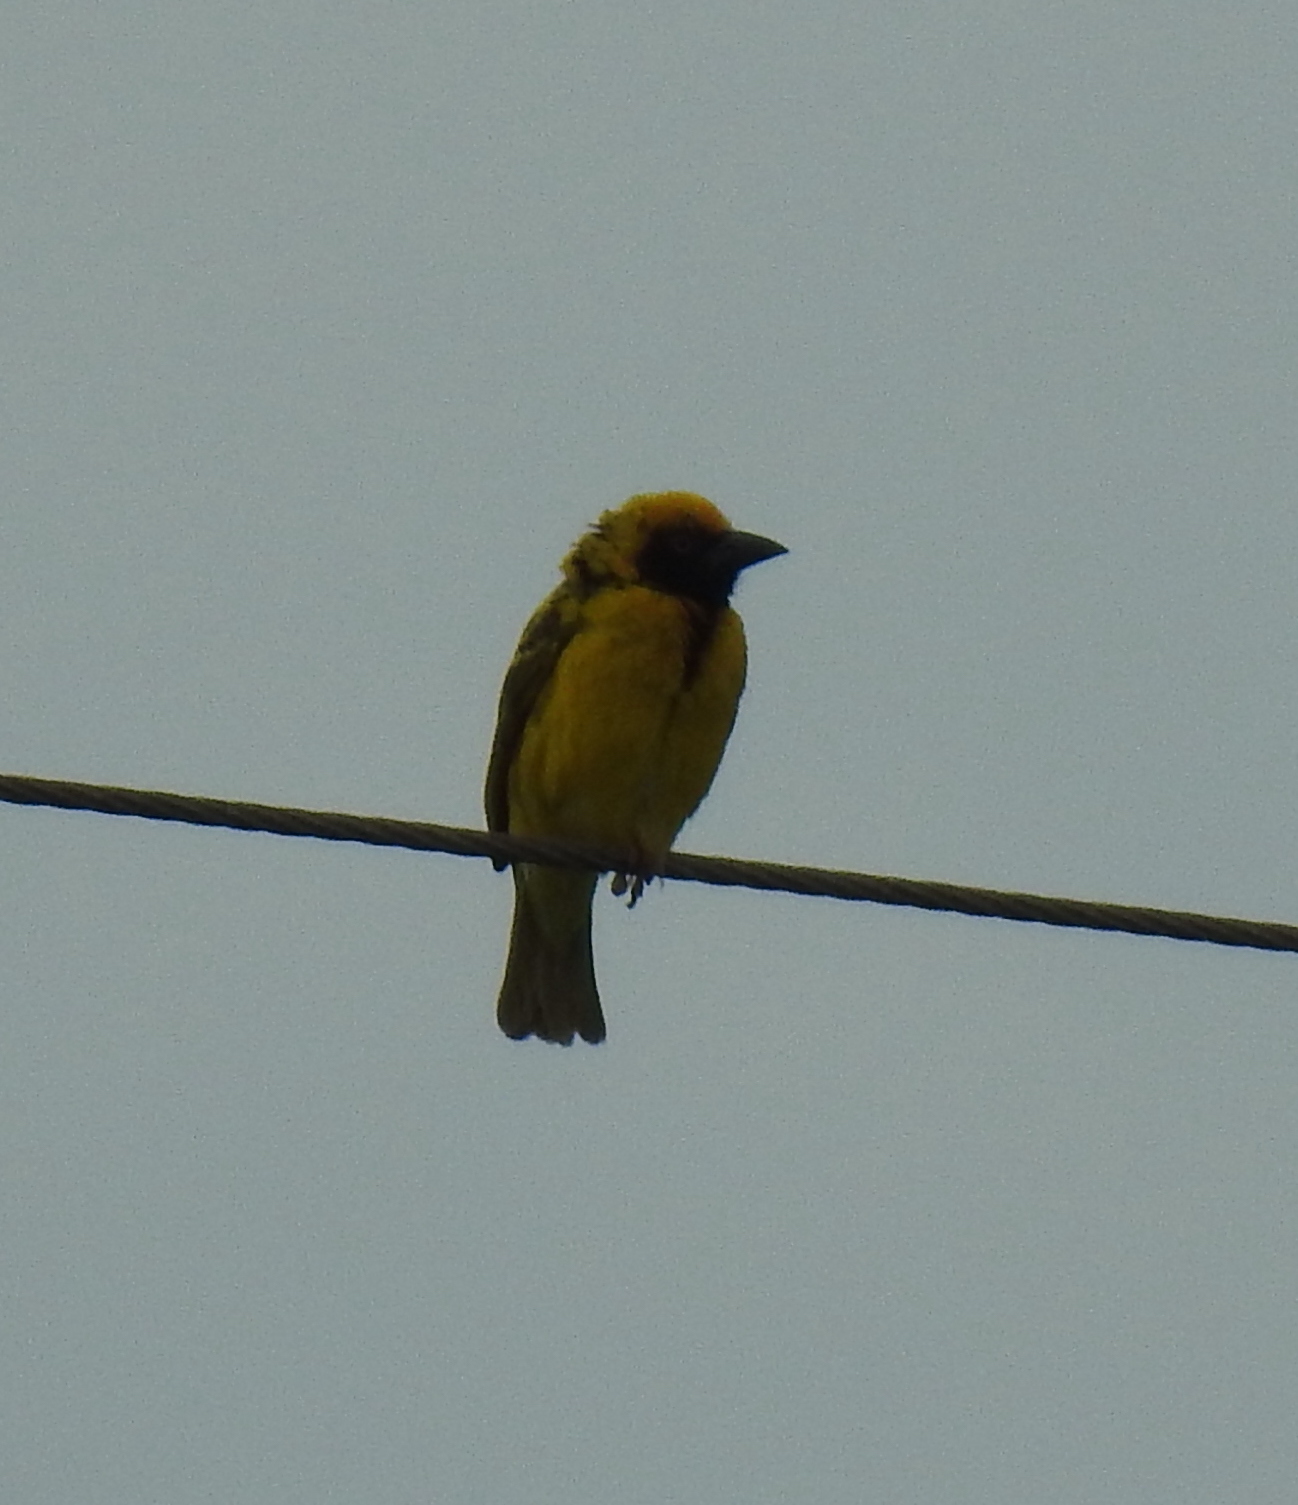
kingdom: Animalia
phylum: Chordata
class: Aves
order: Passeriformes
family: Ploceidae
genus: Ploceus
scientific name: Ploceus cucullatus
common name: Village weaver
